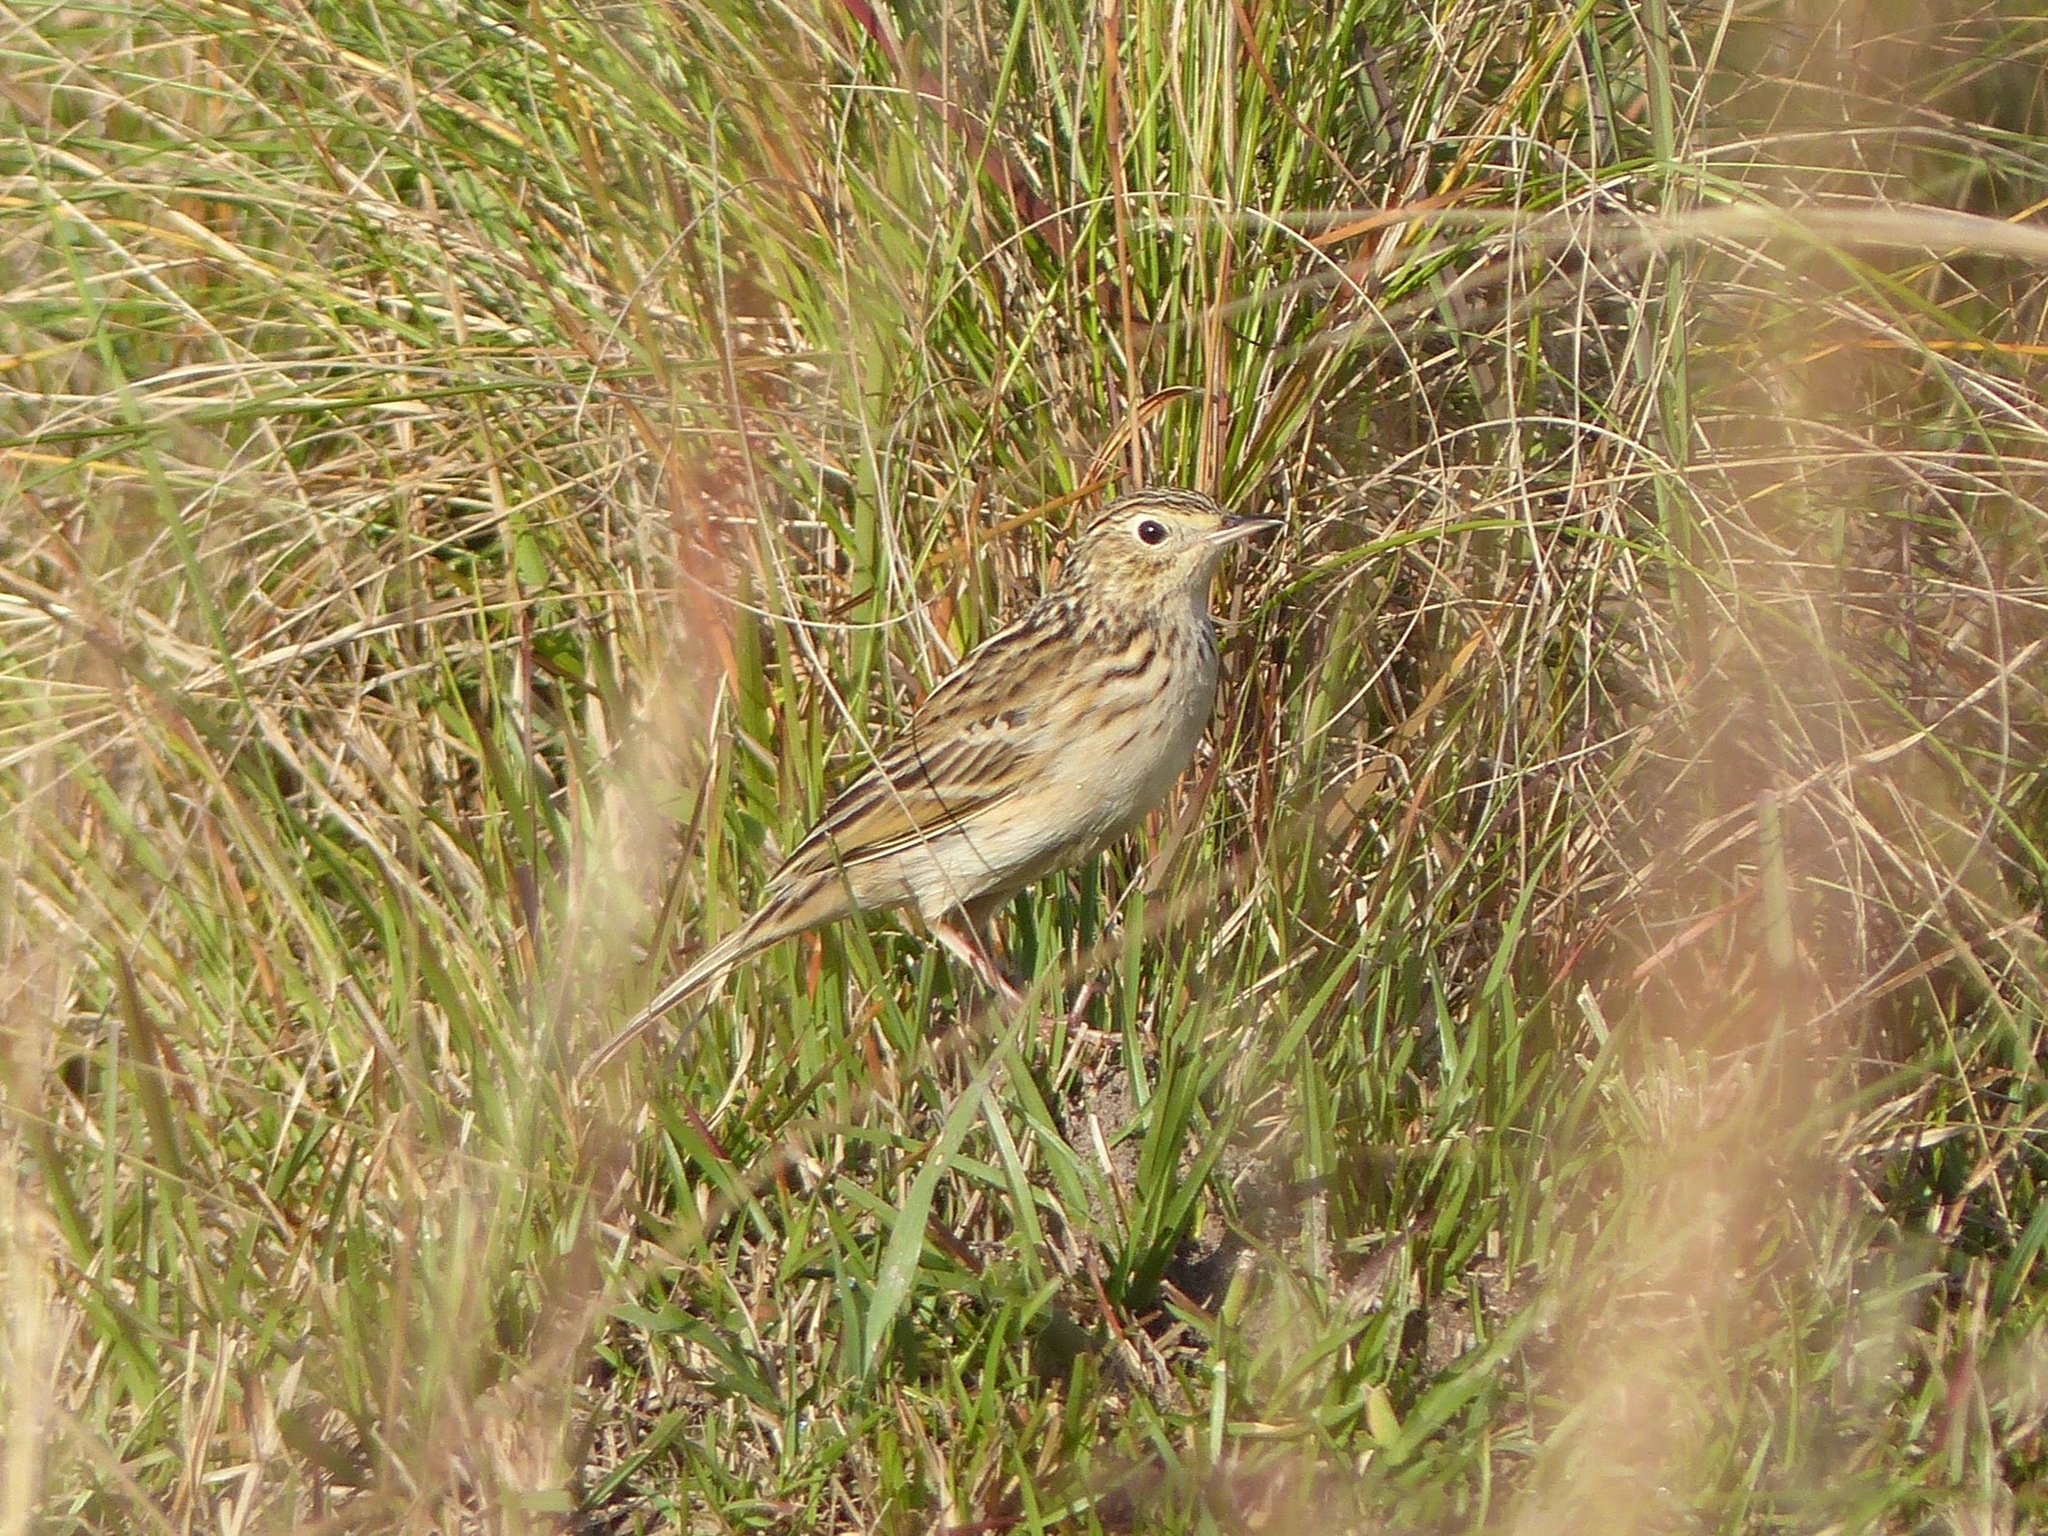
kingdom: Animalia
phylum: Chordata
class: Aves
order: Passeriformes
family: Motacillidae
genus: Anthus
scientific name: Anthus hellmayri
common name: Hellmayr's pipit
